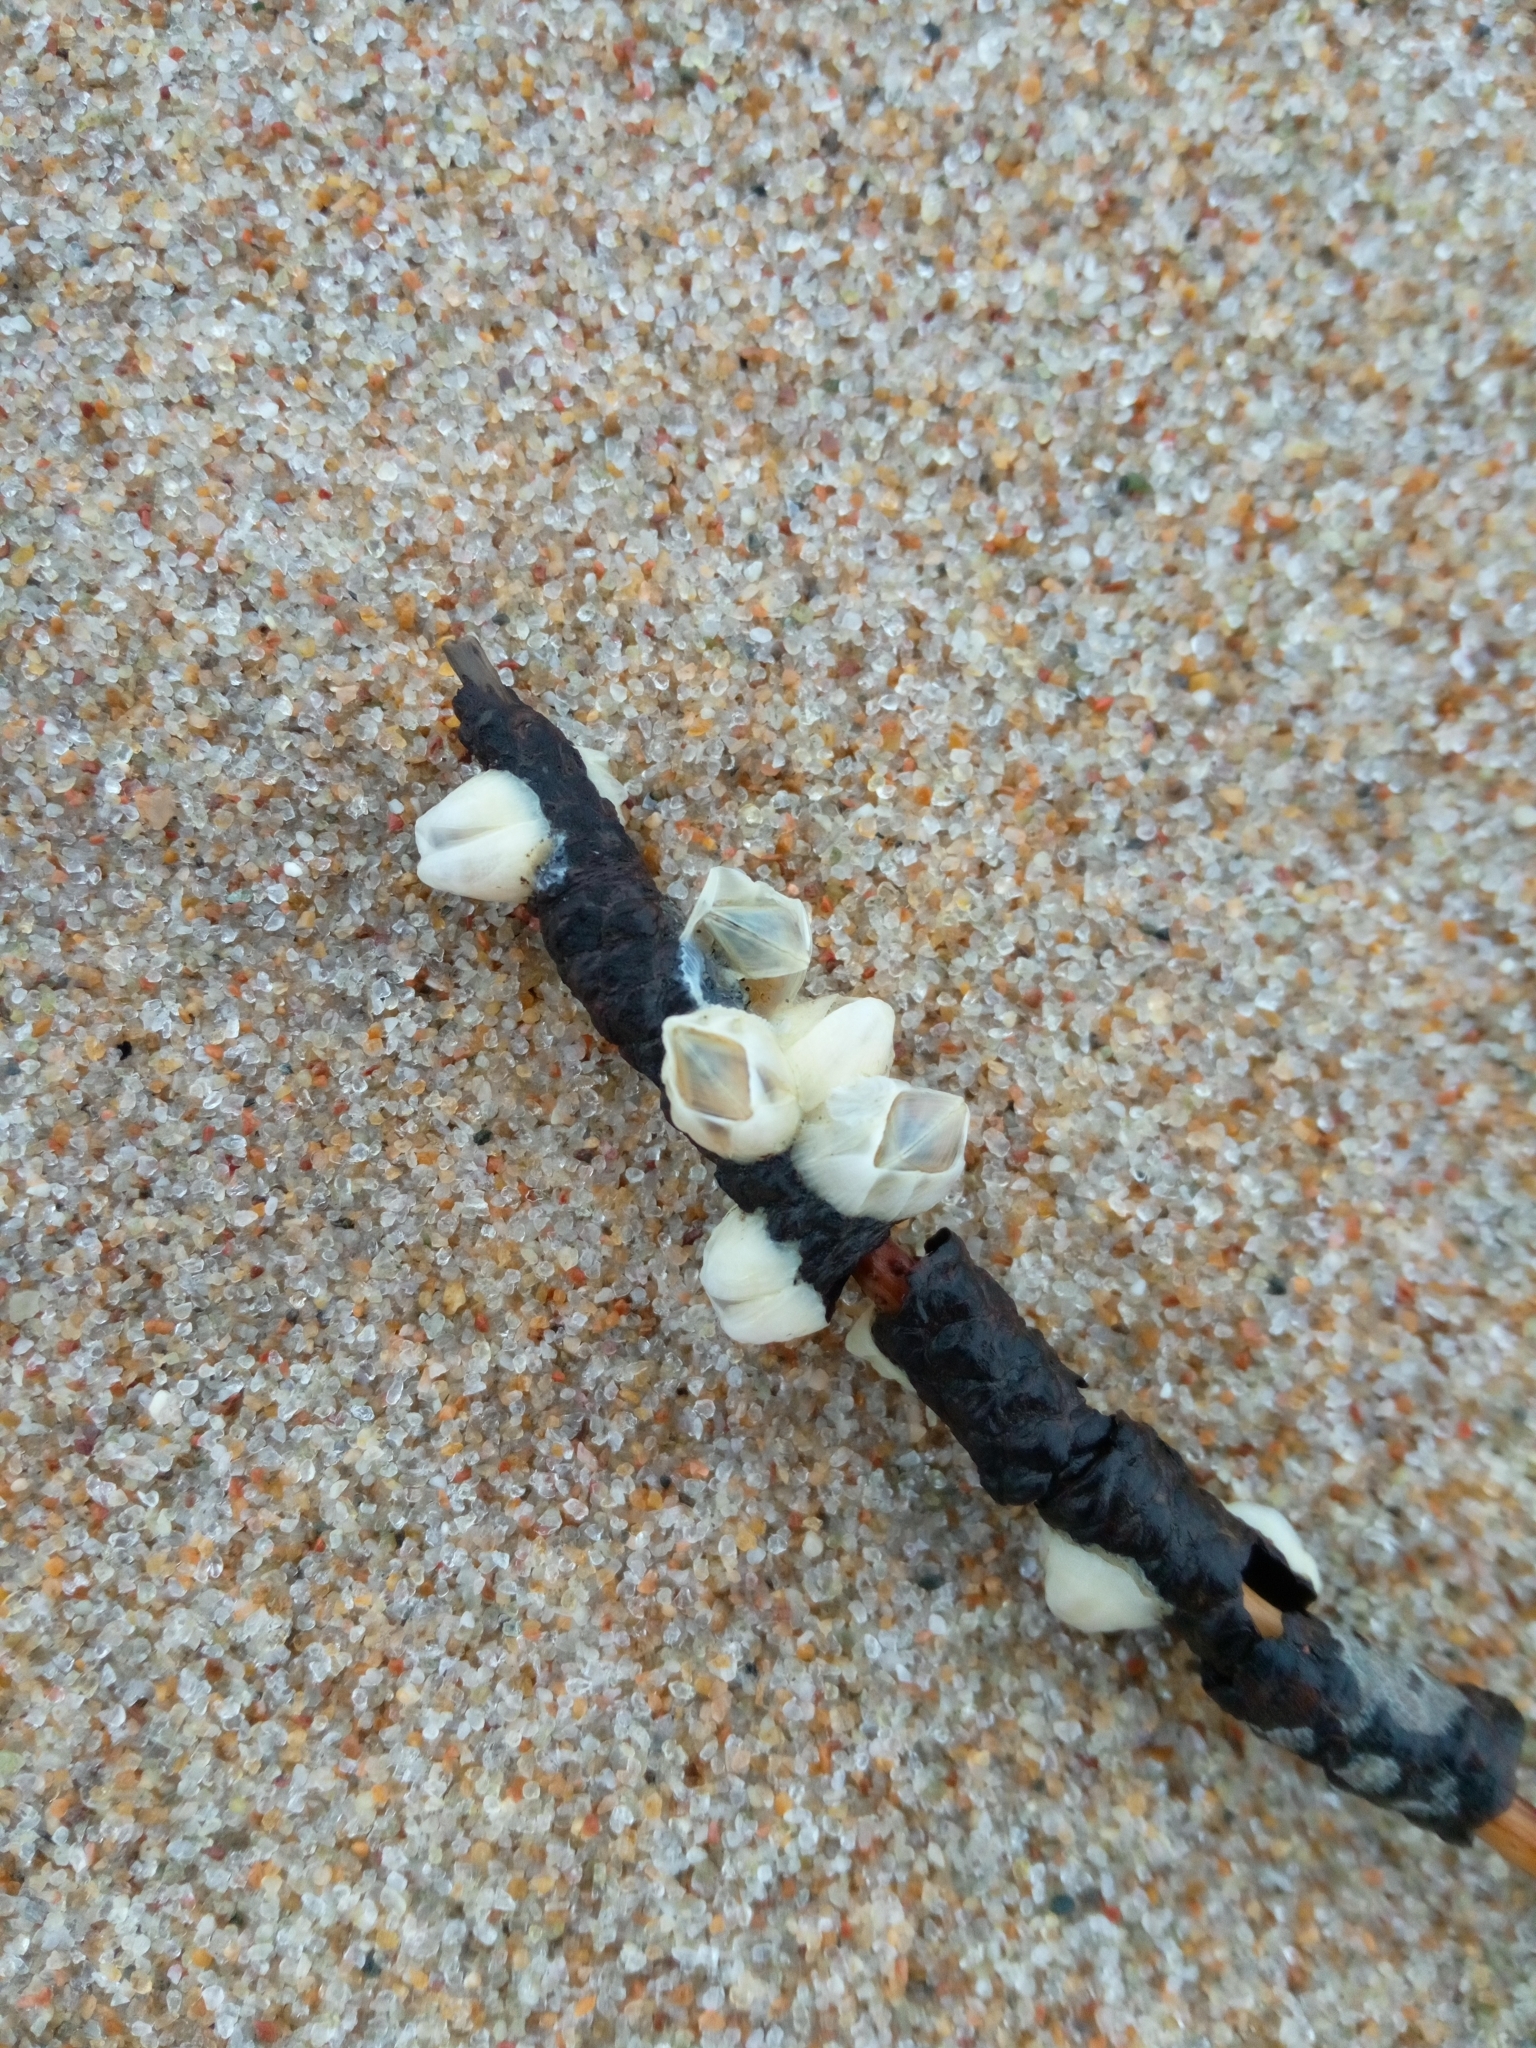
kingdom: Animalia
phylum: Arthropoda
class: Maxillopoda
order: Sessilia
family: Balanidae
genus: Amphibalanus
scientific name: Amphibalanus improvisus
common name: Bay barnacle
